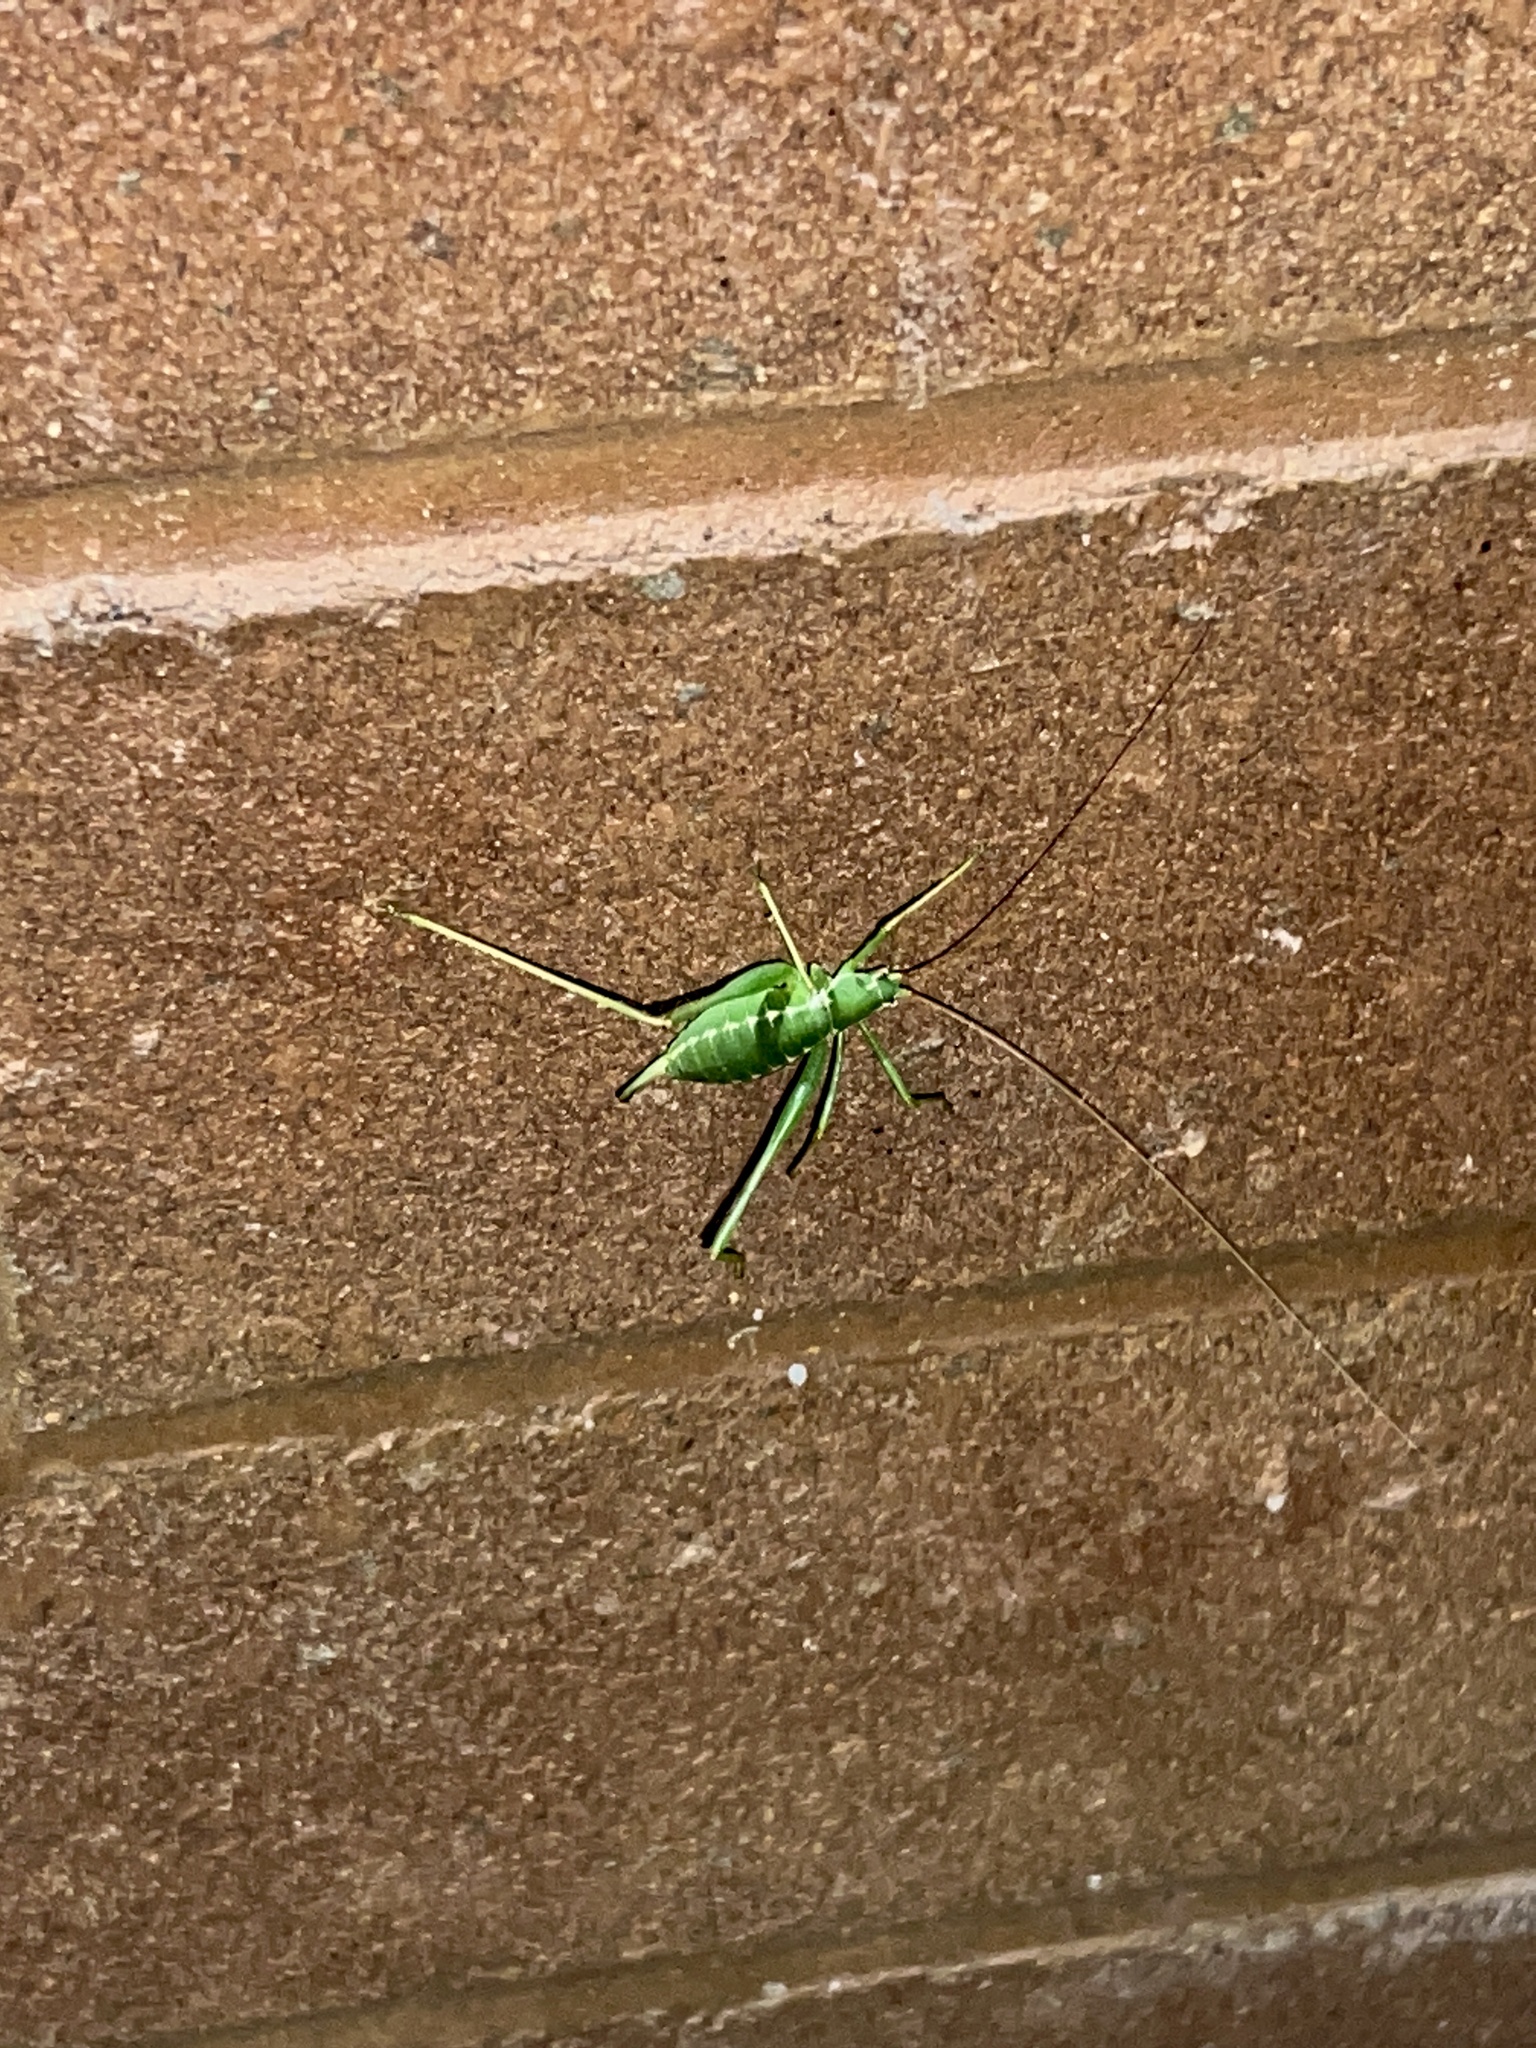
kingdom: Animalia
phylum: Arthropoda
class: Insecta
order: Orthoptera
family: Tettigoniidae
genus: Obolopteryx
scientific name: Obolopteryx brevihastata
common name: Common short-winged katydid
